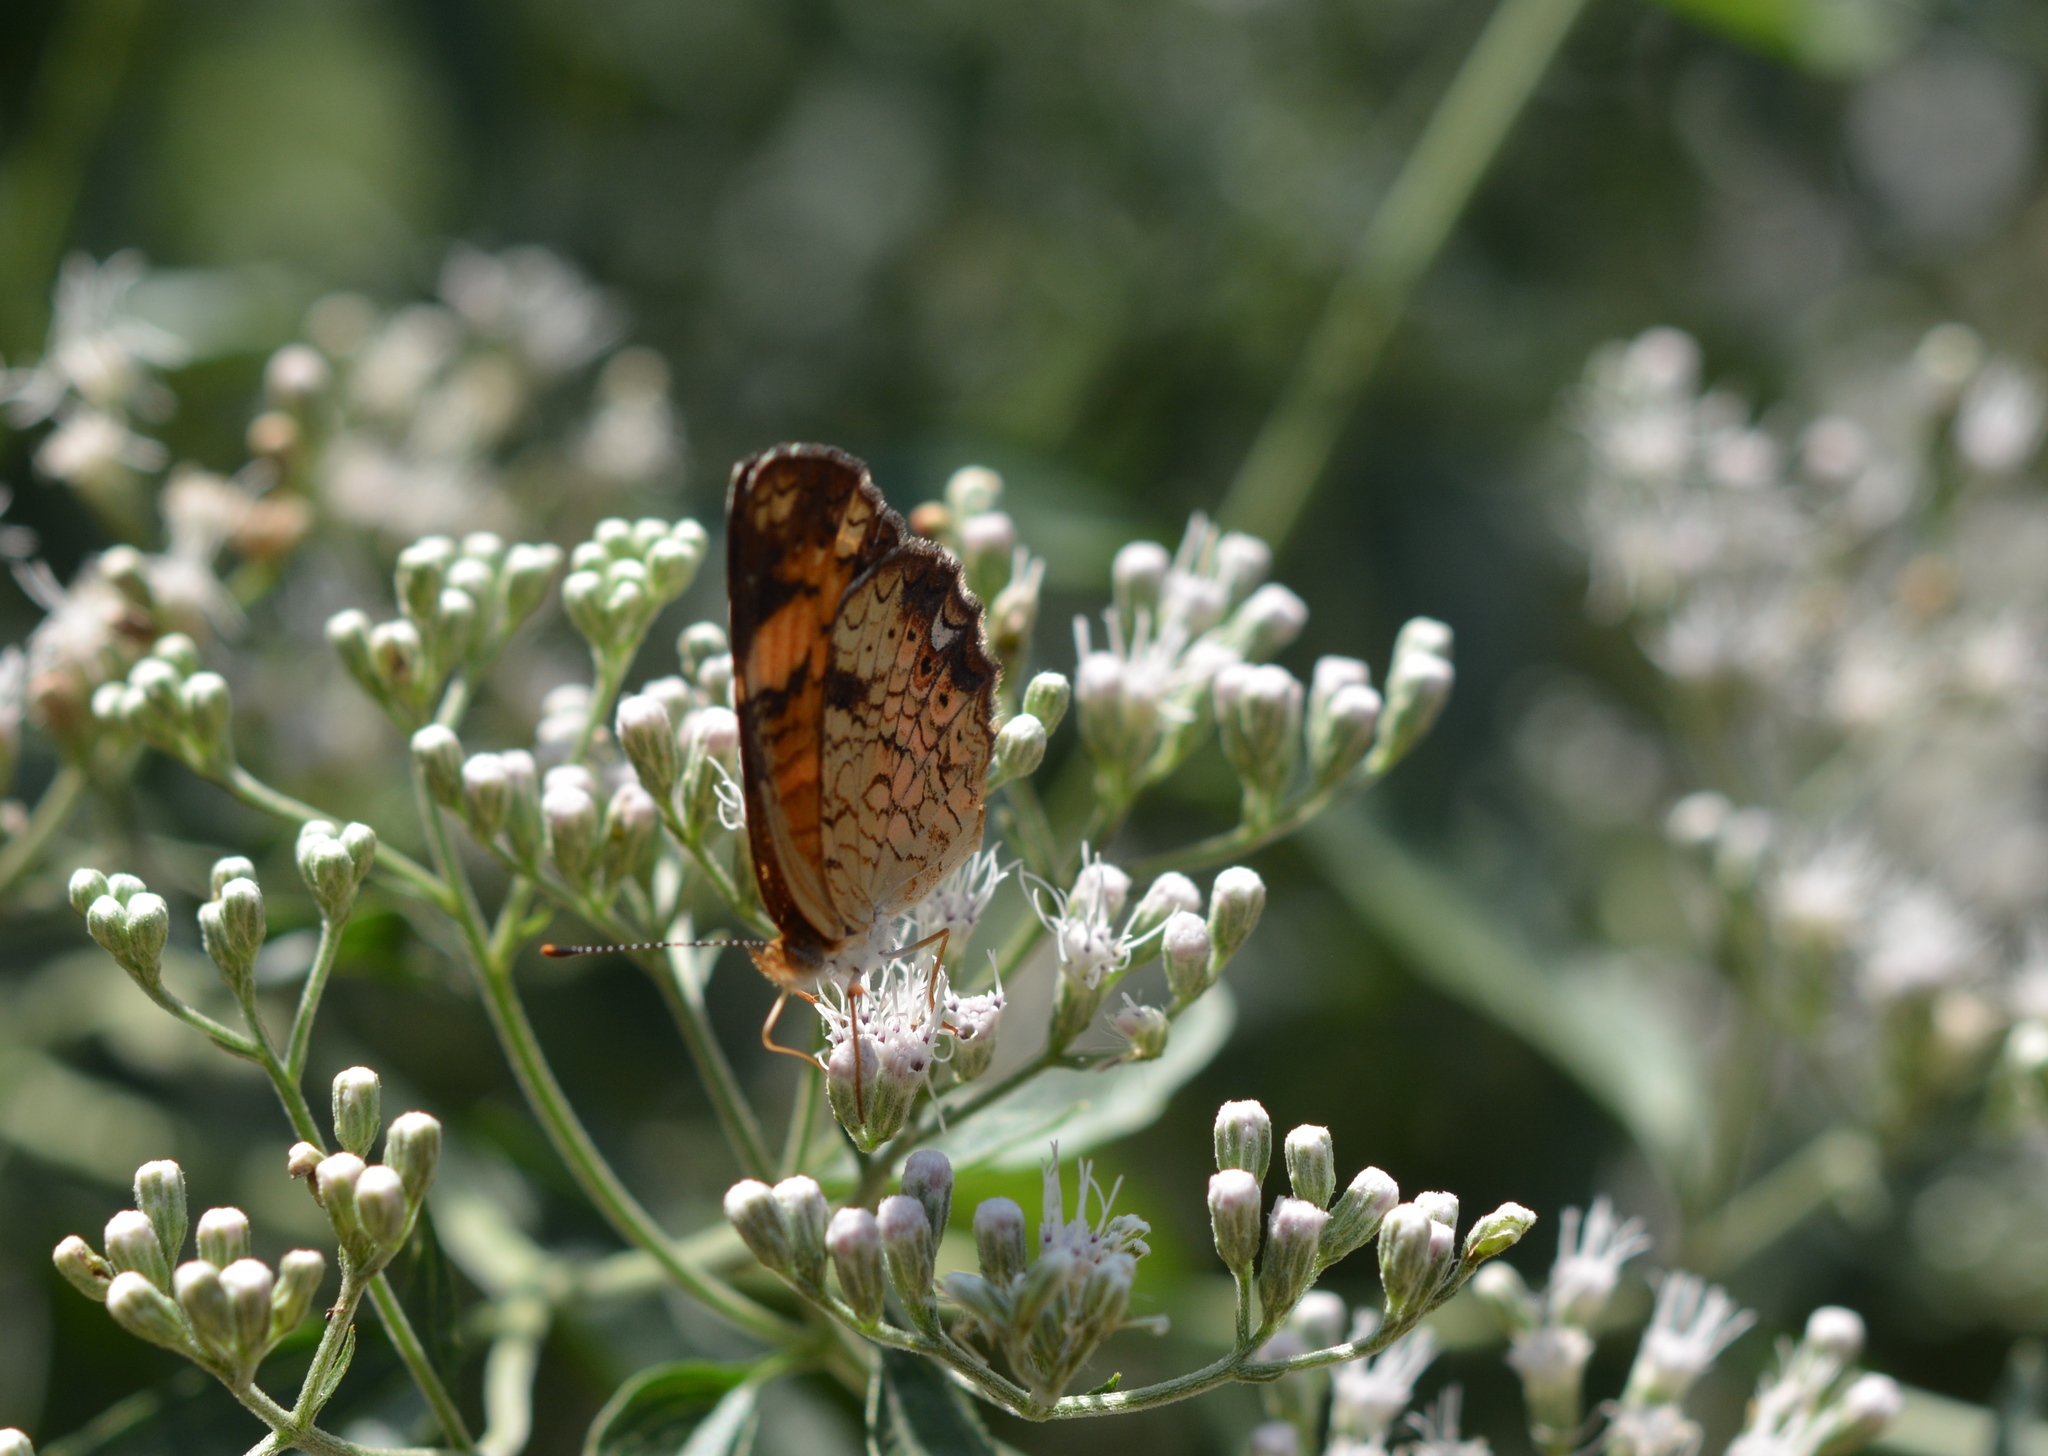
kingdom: Animalia
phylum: Arthropoda
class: Insecta
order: Lepidoptera
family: Nymphalidae
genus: Phyciodes
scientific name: Phyciodes tharos
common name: Pearl crescent
